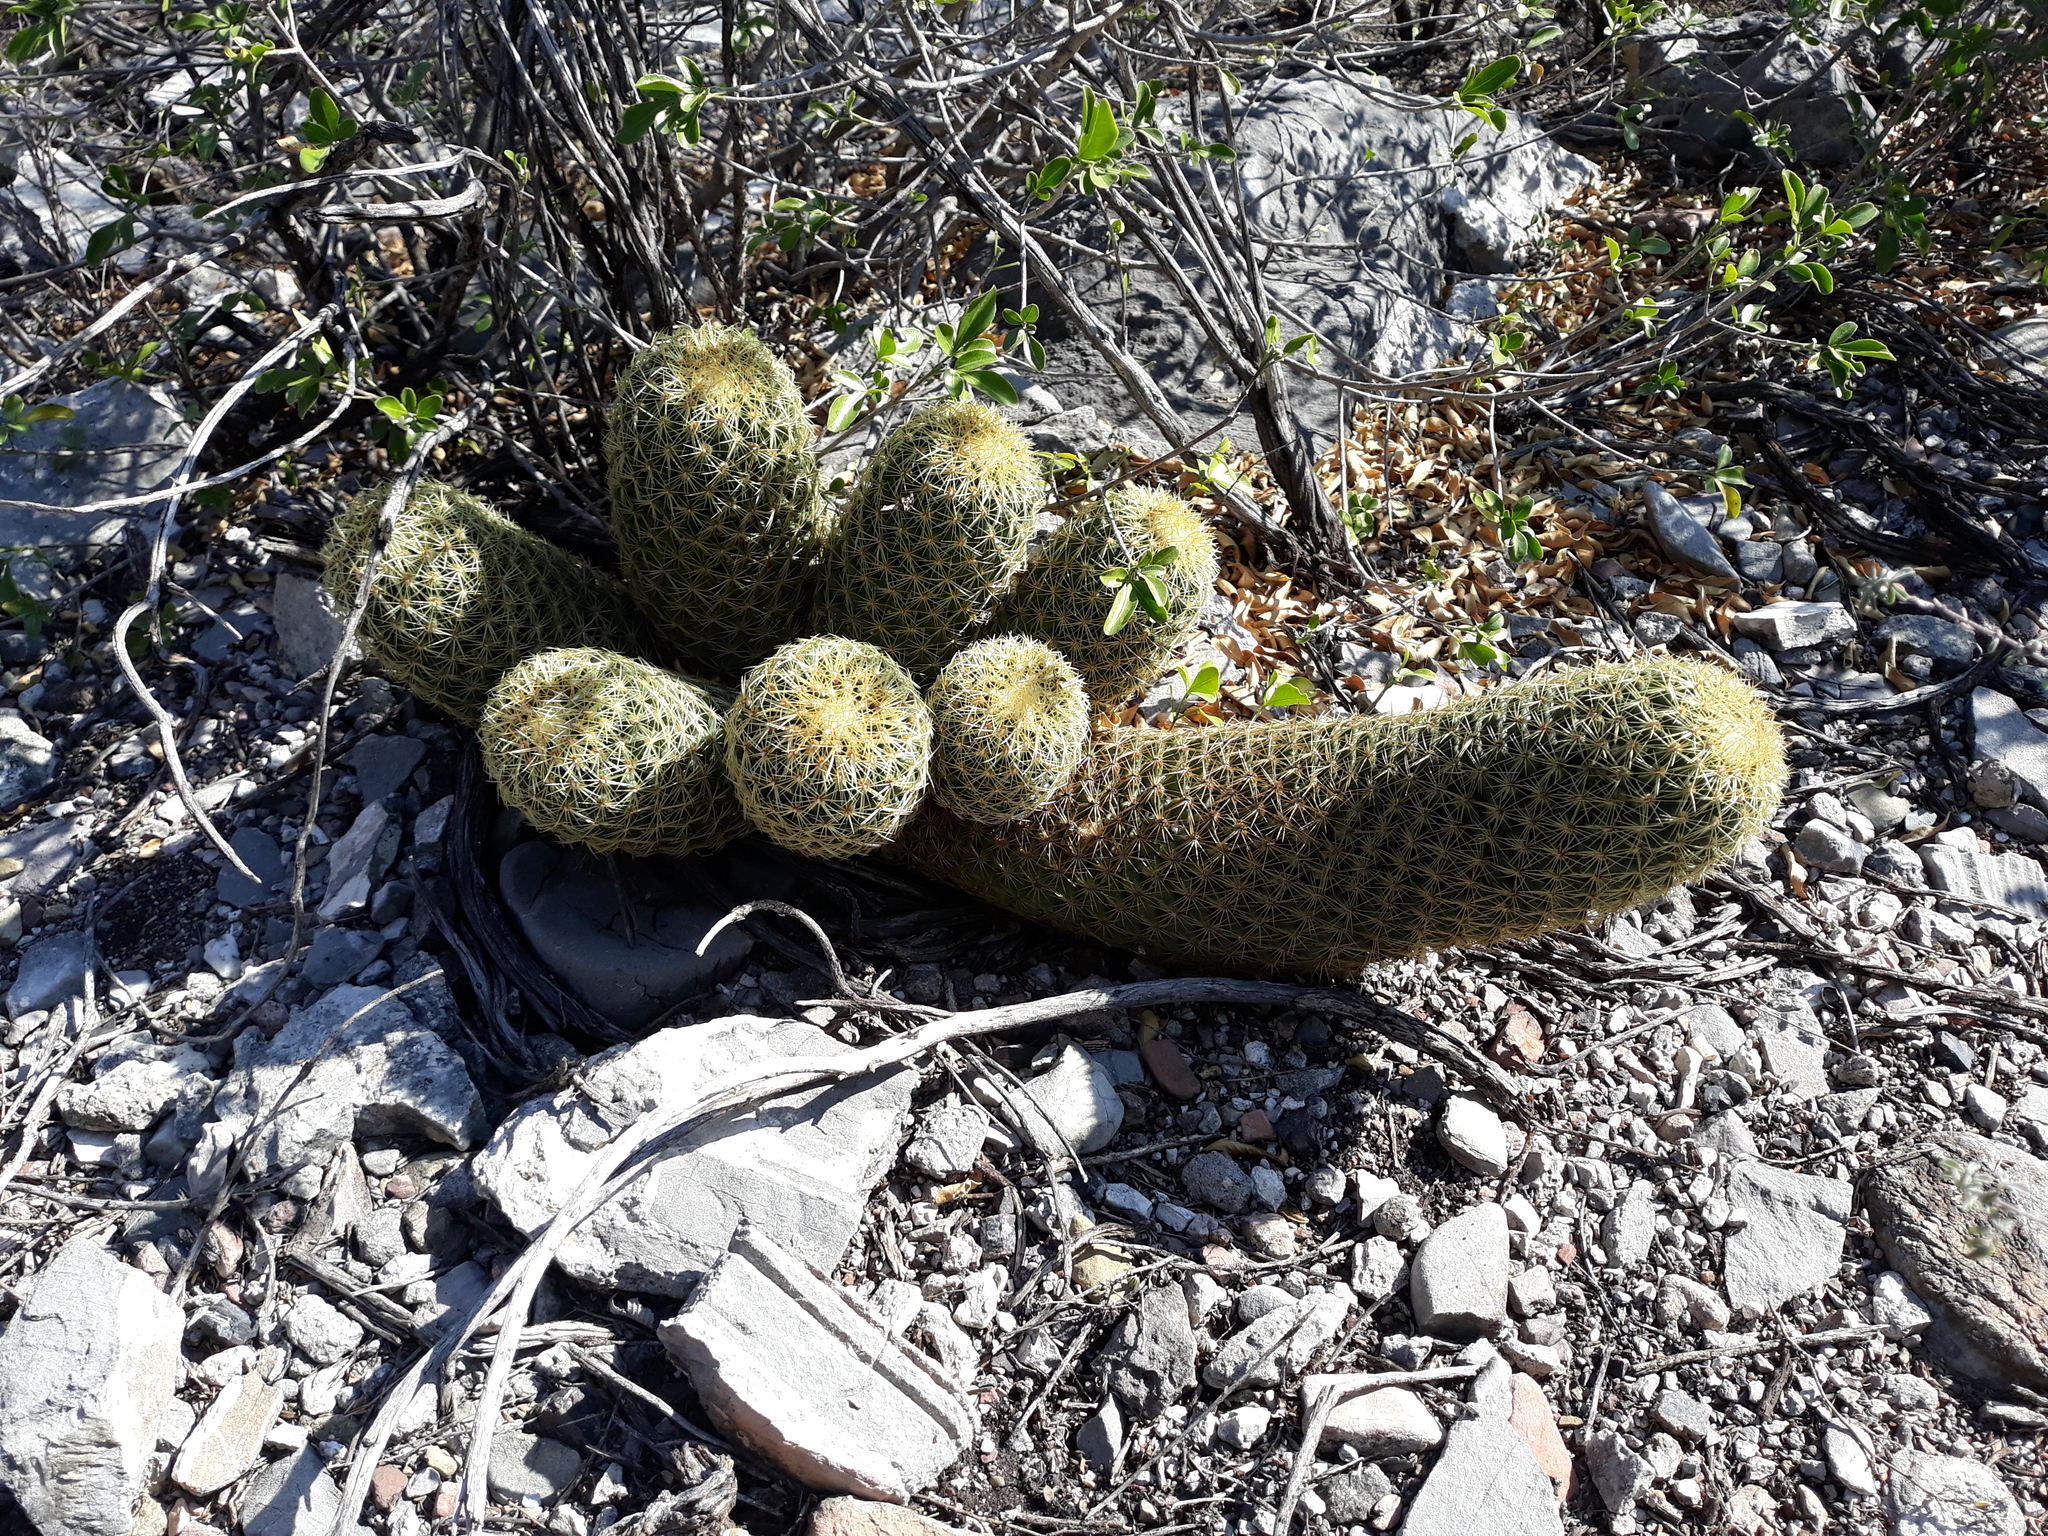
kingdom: Plantae
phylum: Tracheophyta
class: Magnoliopsida
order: Caryophyllales
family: Cactaceae
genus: Coryphantha
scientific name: Coryphantha erecta
